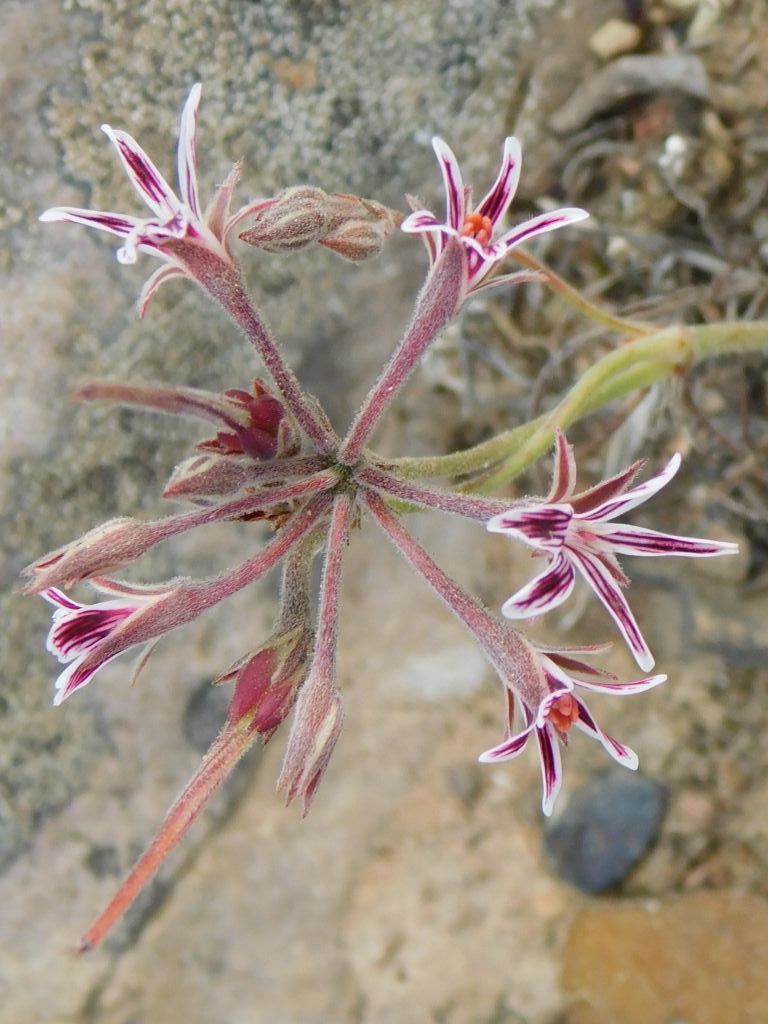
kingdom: Plantae
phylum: Tracheophyta
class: Magnoliopsida
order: Geraniales
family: Geraniaceae
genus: Pelargonium
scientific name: Pelargonium caledonicum
